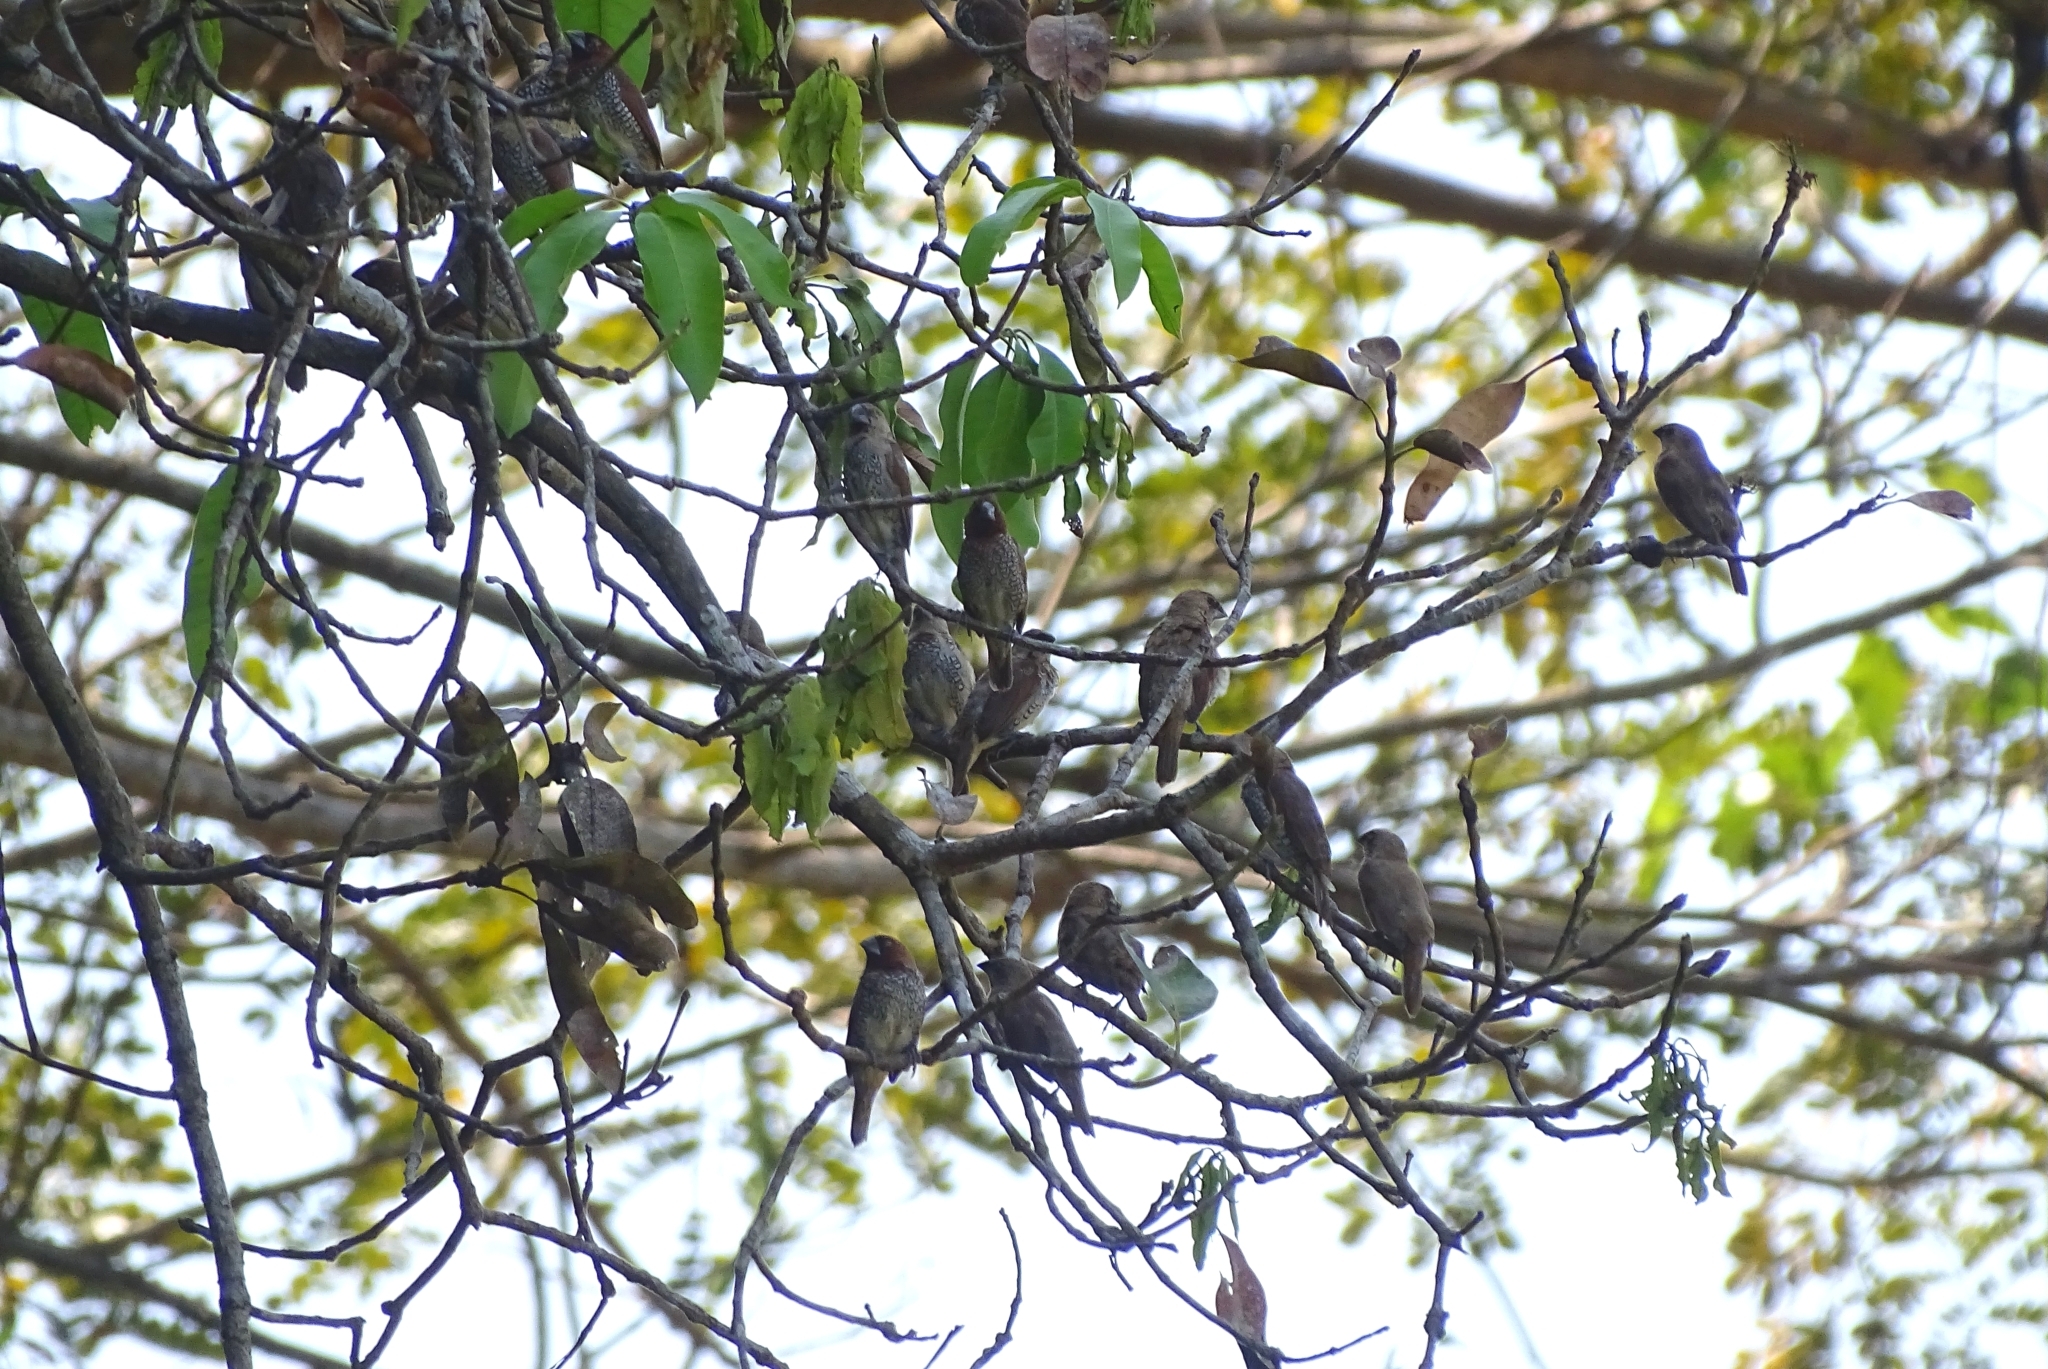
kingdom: Animalia
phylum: Chordata
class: Aves
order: Passeriformes
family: Estrildidae
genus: Lonchura
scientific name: Lonchura punctulata
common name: Scaly-breasted munia
